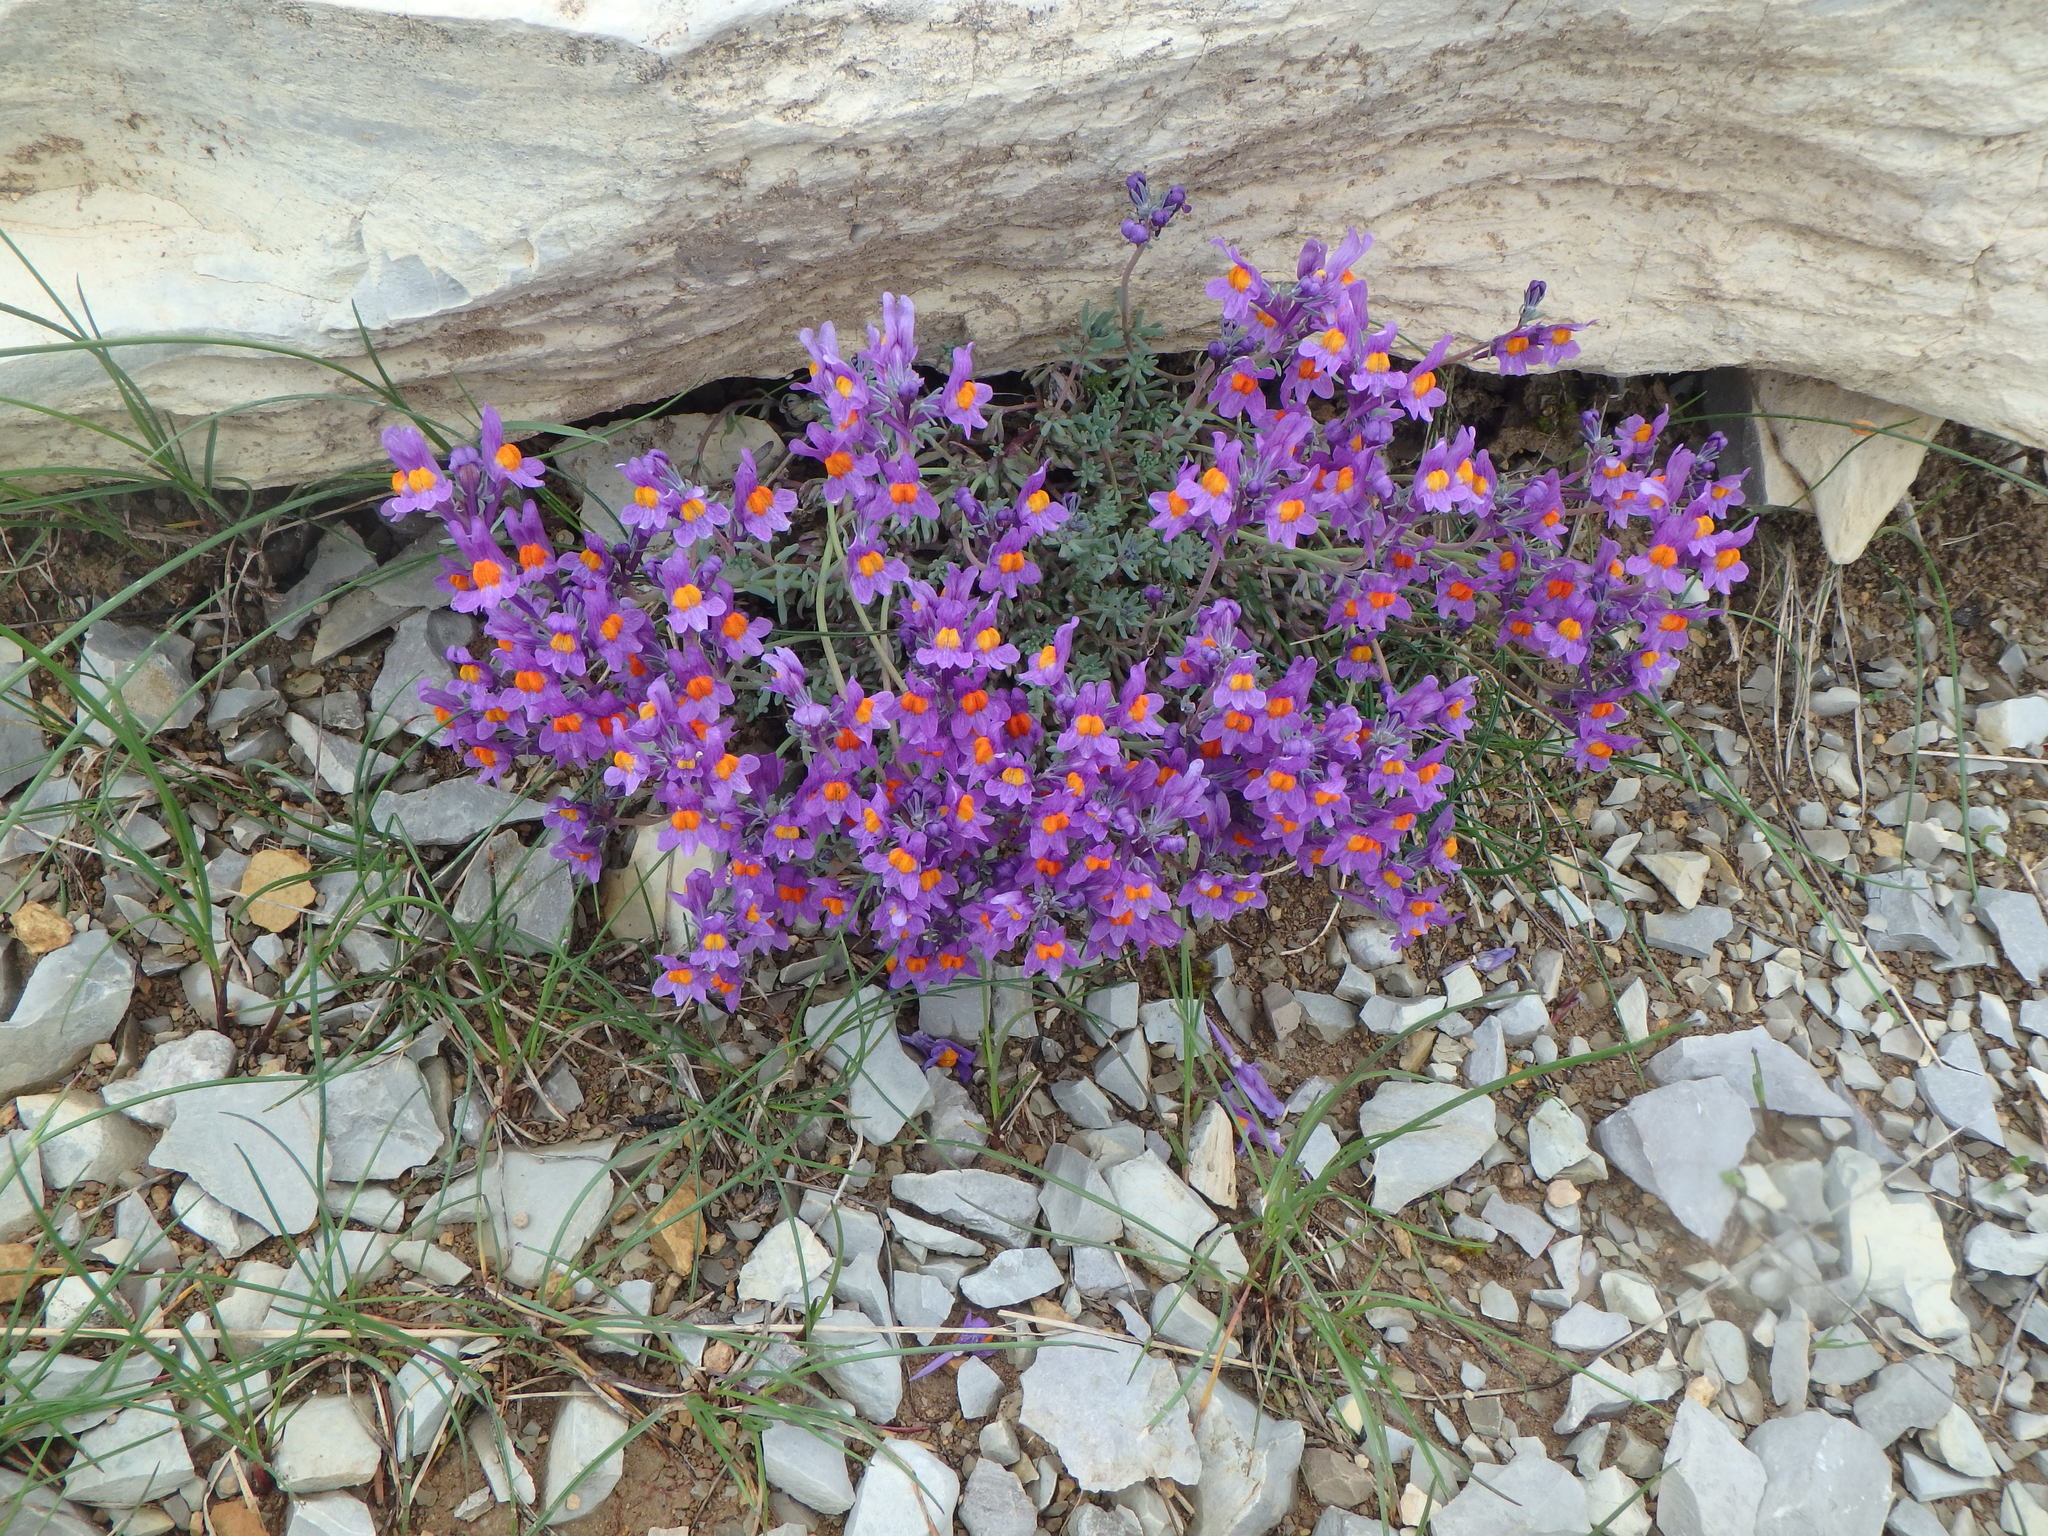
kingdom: Plantae
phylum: Tracheophyta
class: Magnoliopsida
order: Lamiales
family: Plantaginaceae
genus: Linaria
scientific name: Linaria alpina
